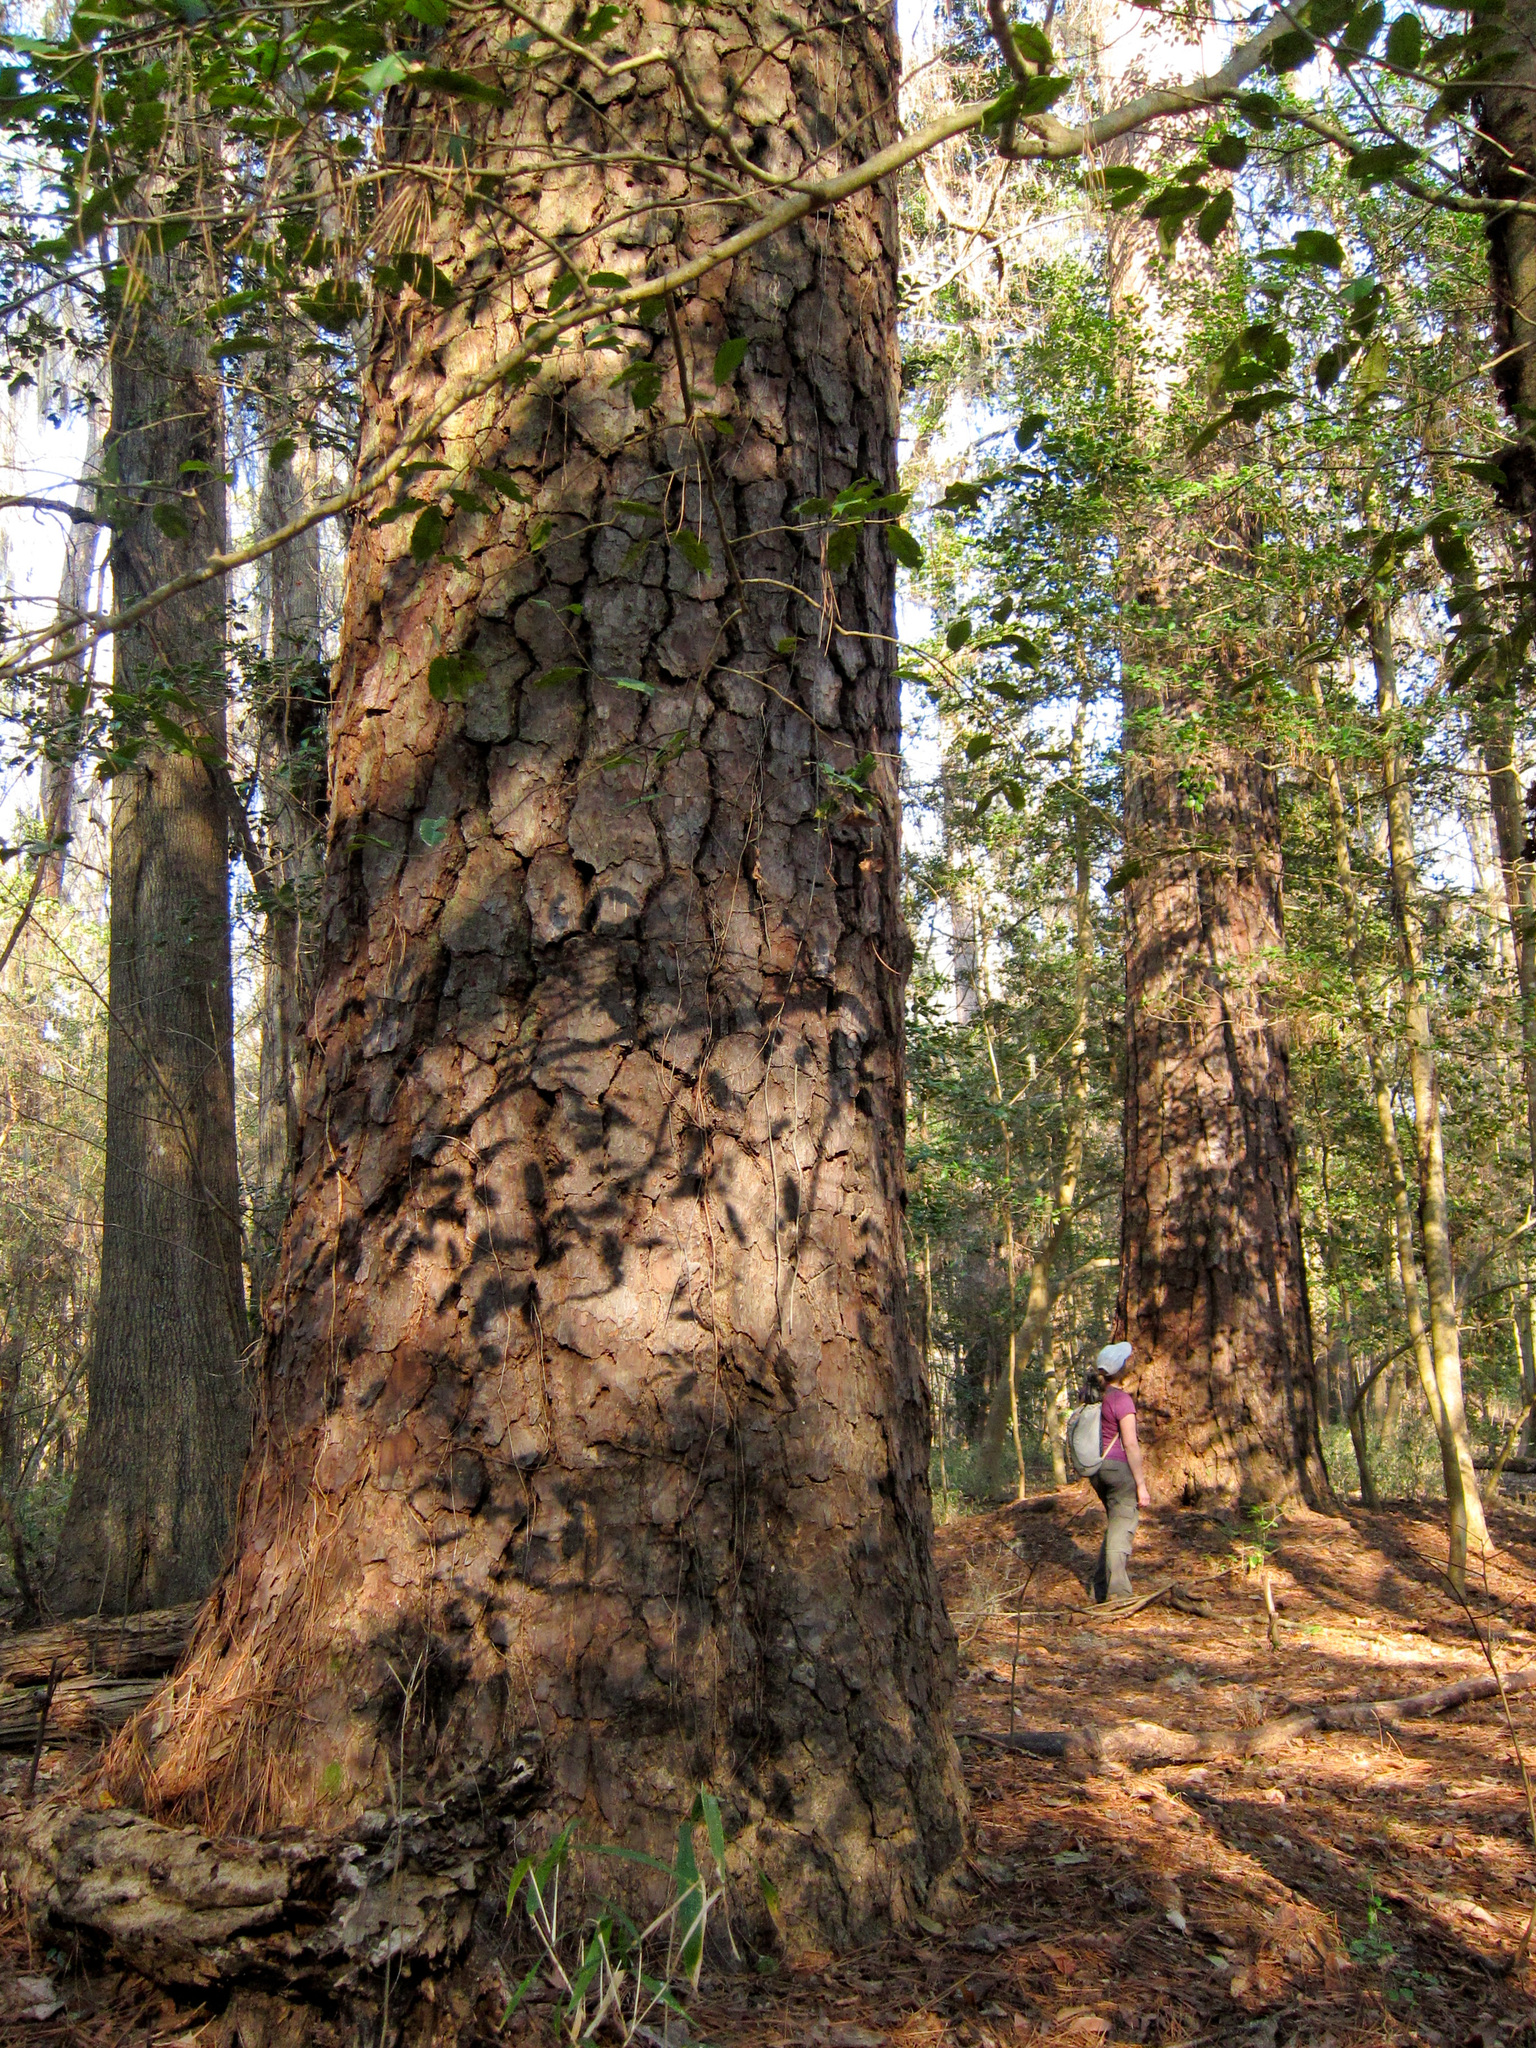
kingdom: Plantae
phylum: Tracheophyta
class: Pinopsida
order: Pinales
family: Pinaceae
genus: Pinus
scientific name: Pinus taeda
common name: Loblolly pine
